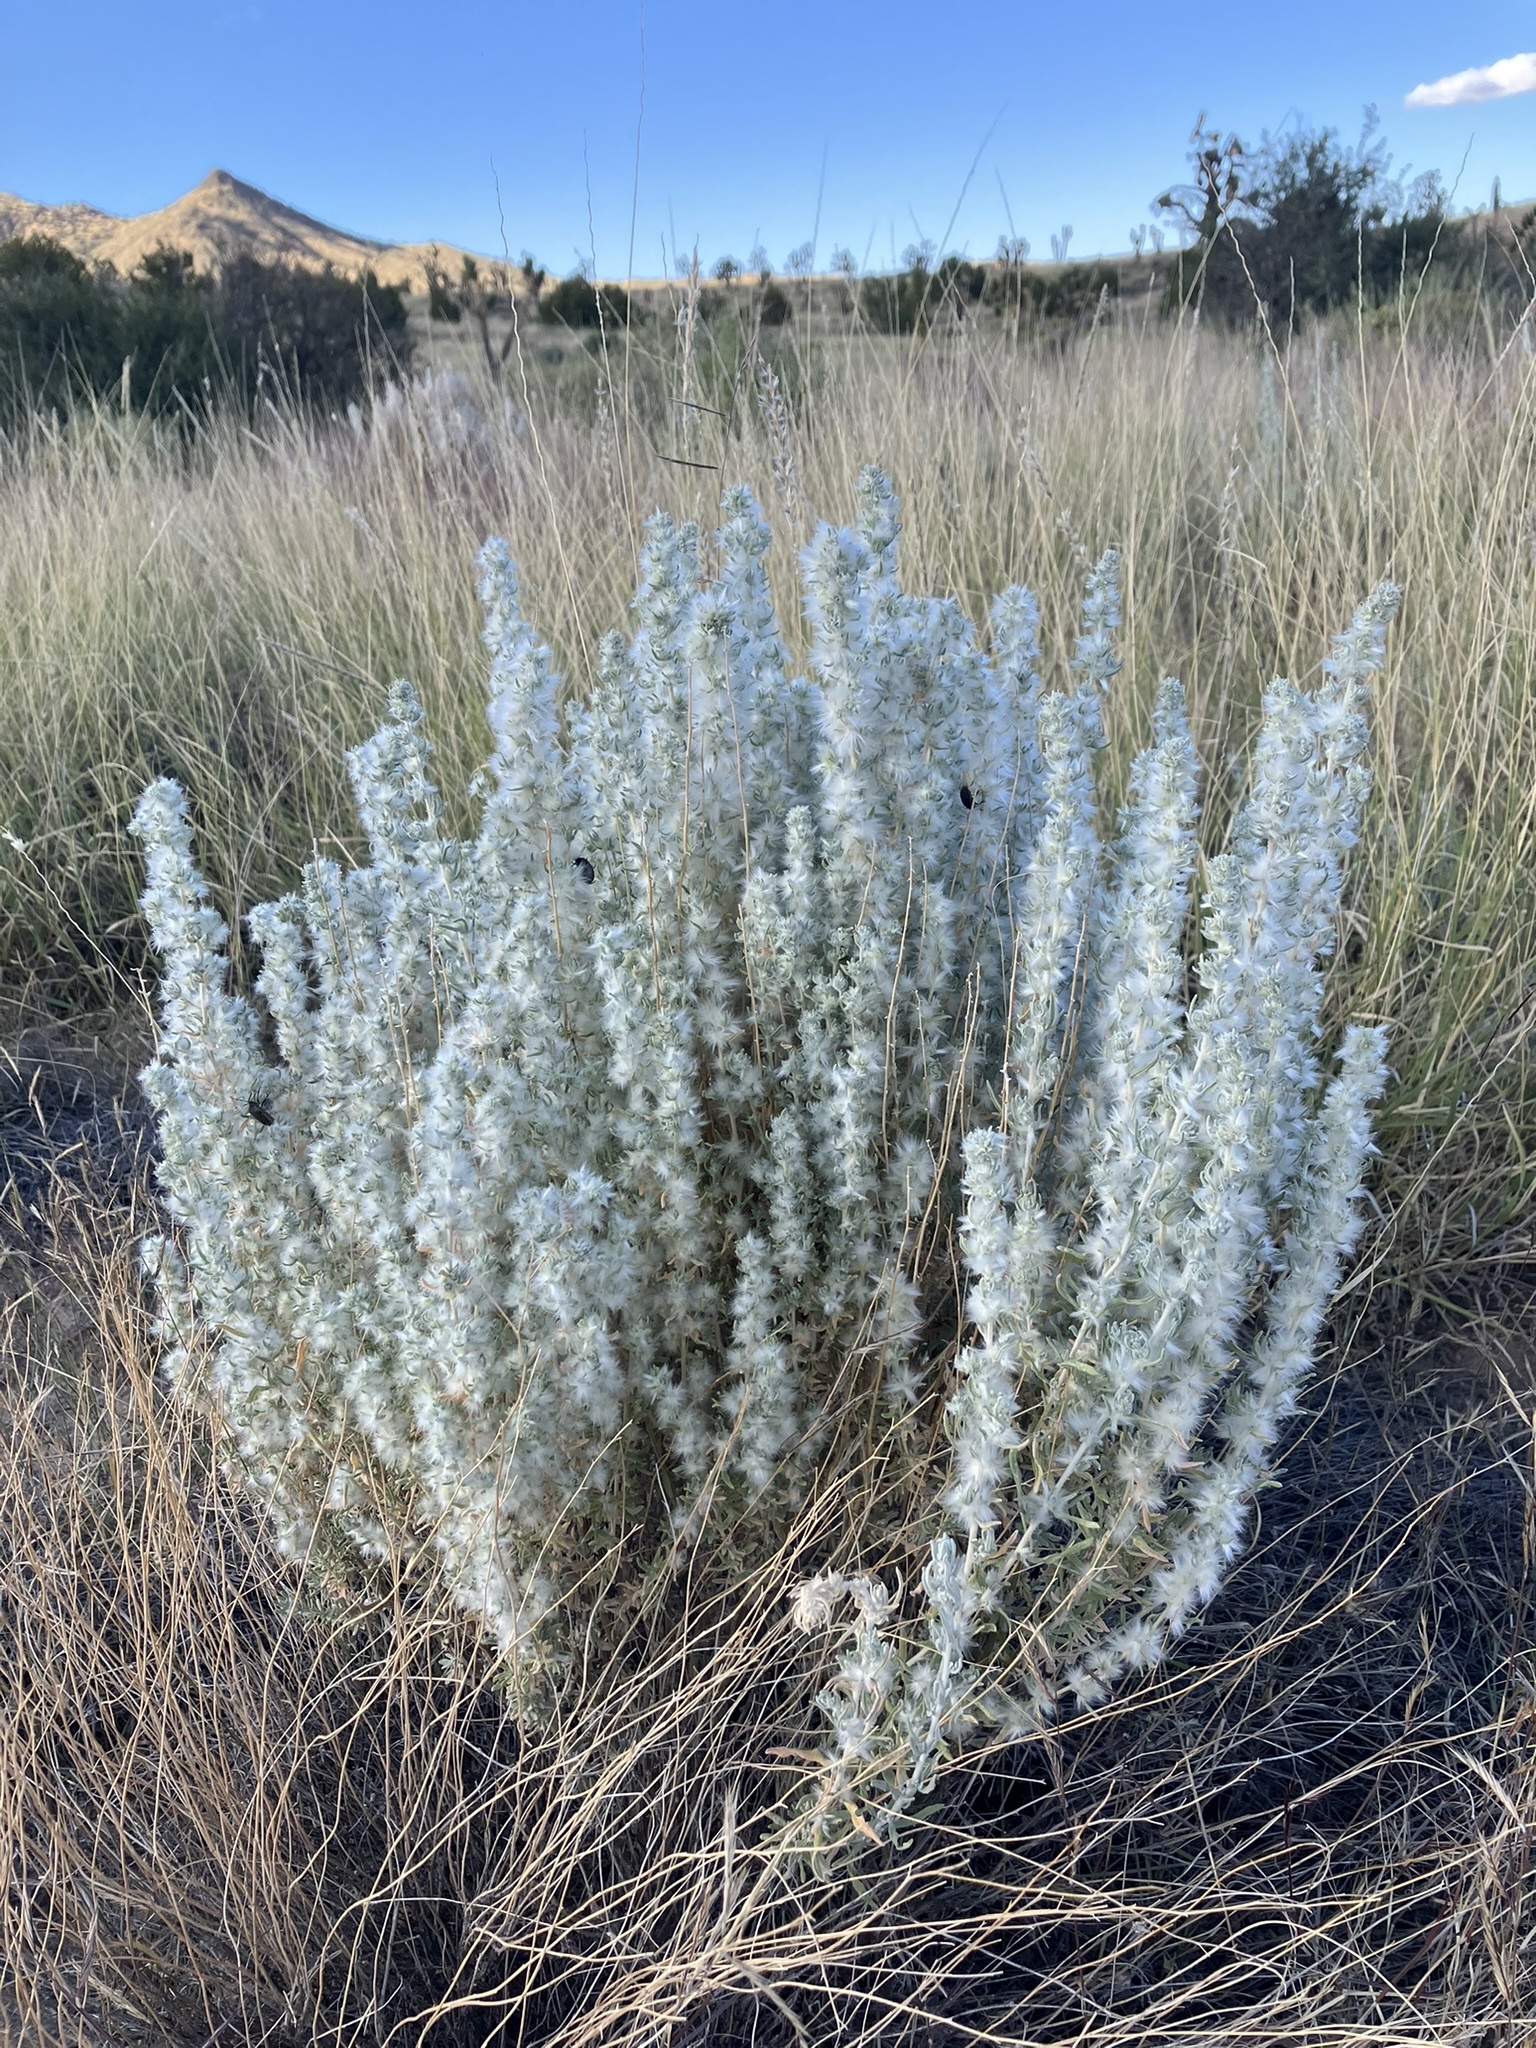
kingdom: Plantae
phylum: Tracheophyta
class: Magnoliopsida
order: Caryophyllales
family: Amaranthaceae
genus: Krascheninnikovia
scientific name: Krascheninnikovia lanata
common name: Winterfat
